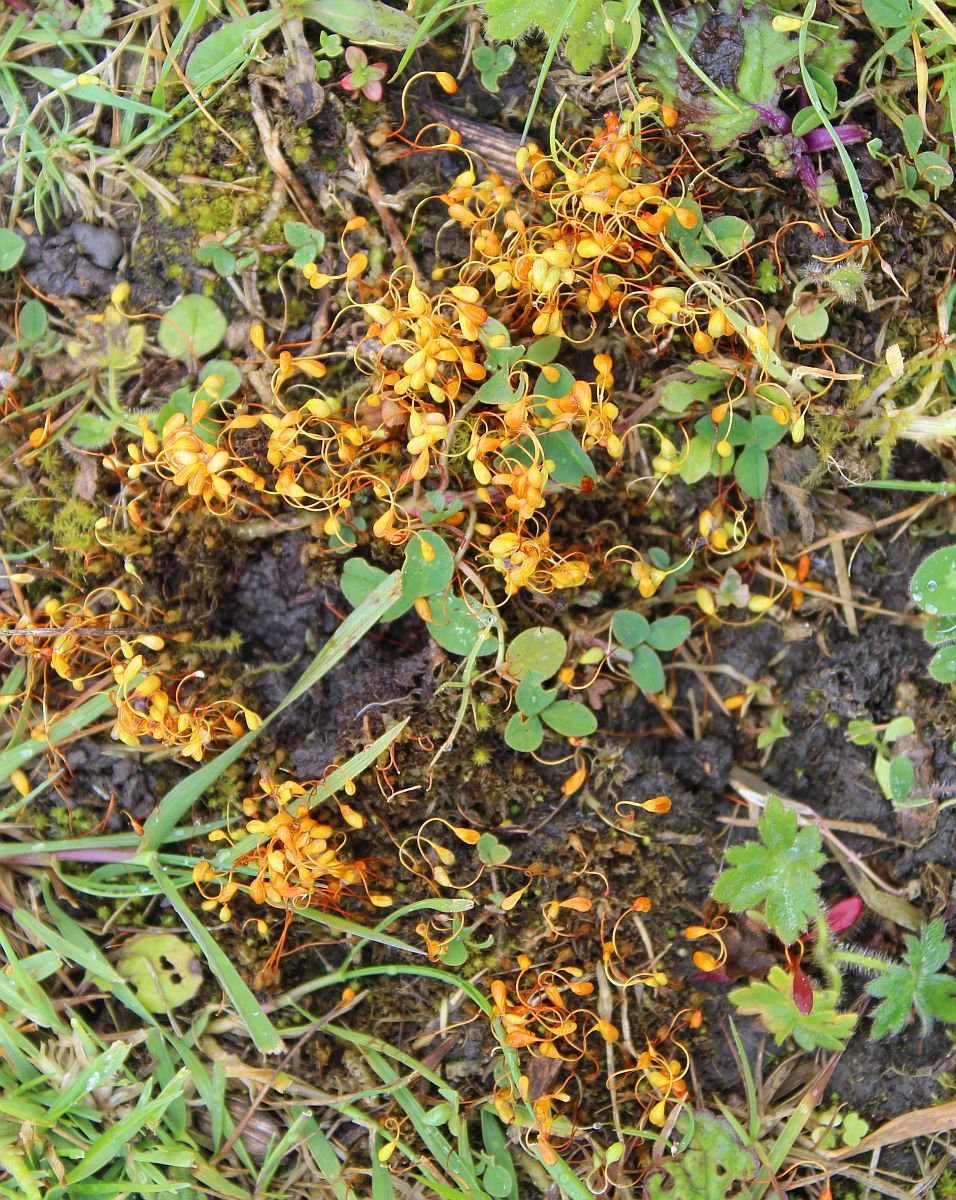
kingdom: Plantae
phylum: Bryophyta
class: Bryopsida
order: Funariales
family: Funariaceae
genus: Funaria
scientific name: Funaria hygrometrica
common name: Common cord moss
